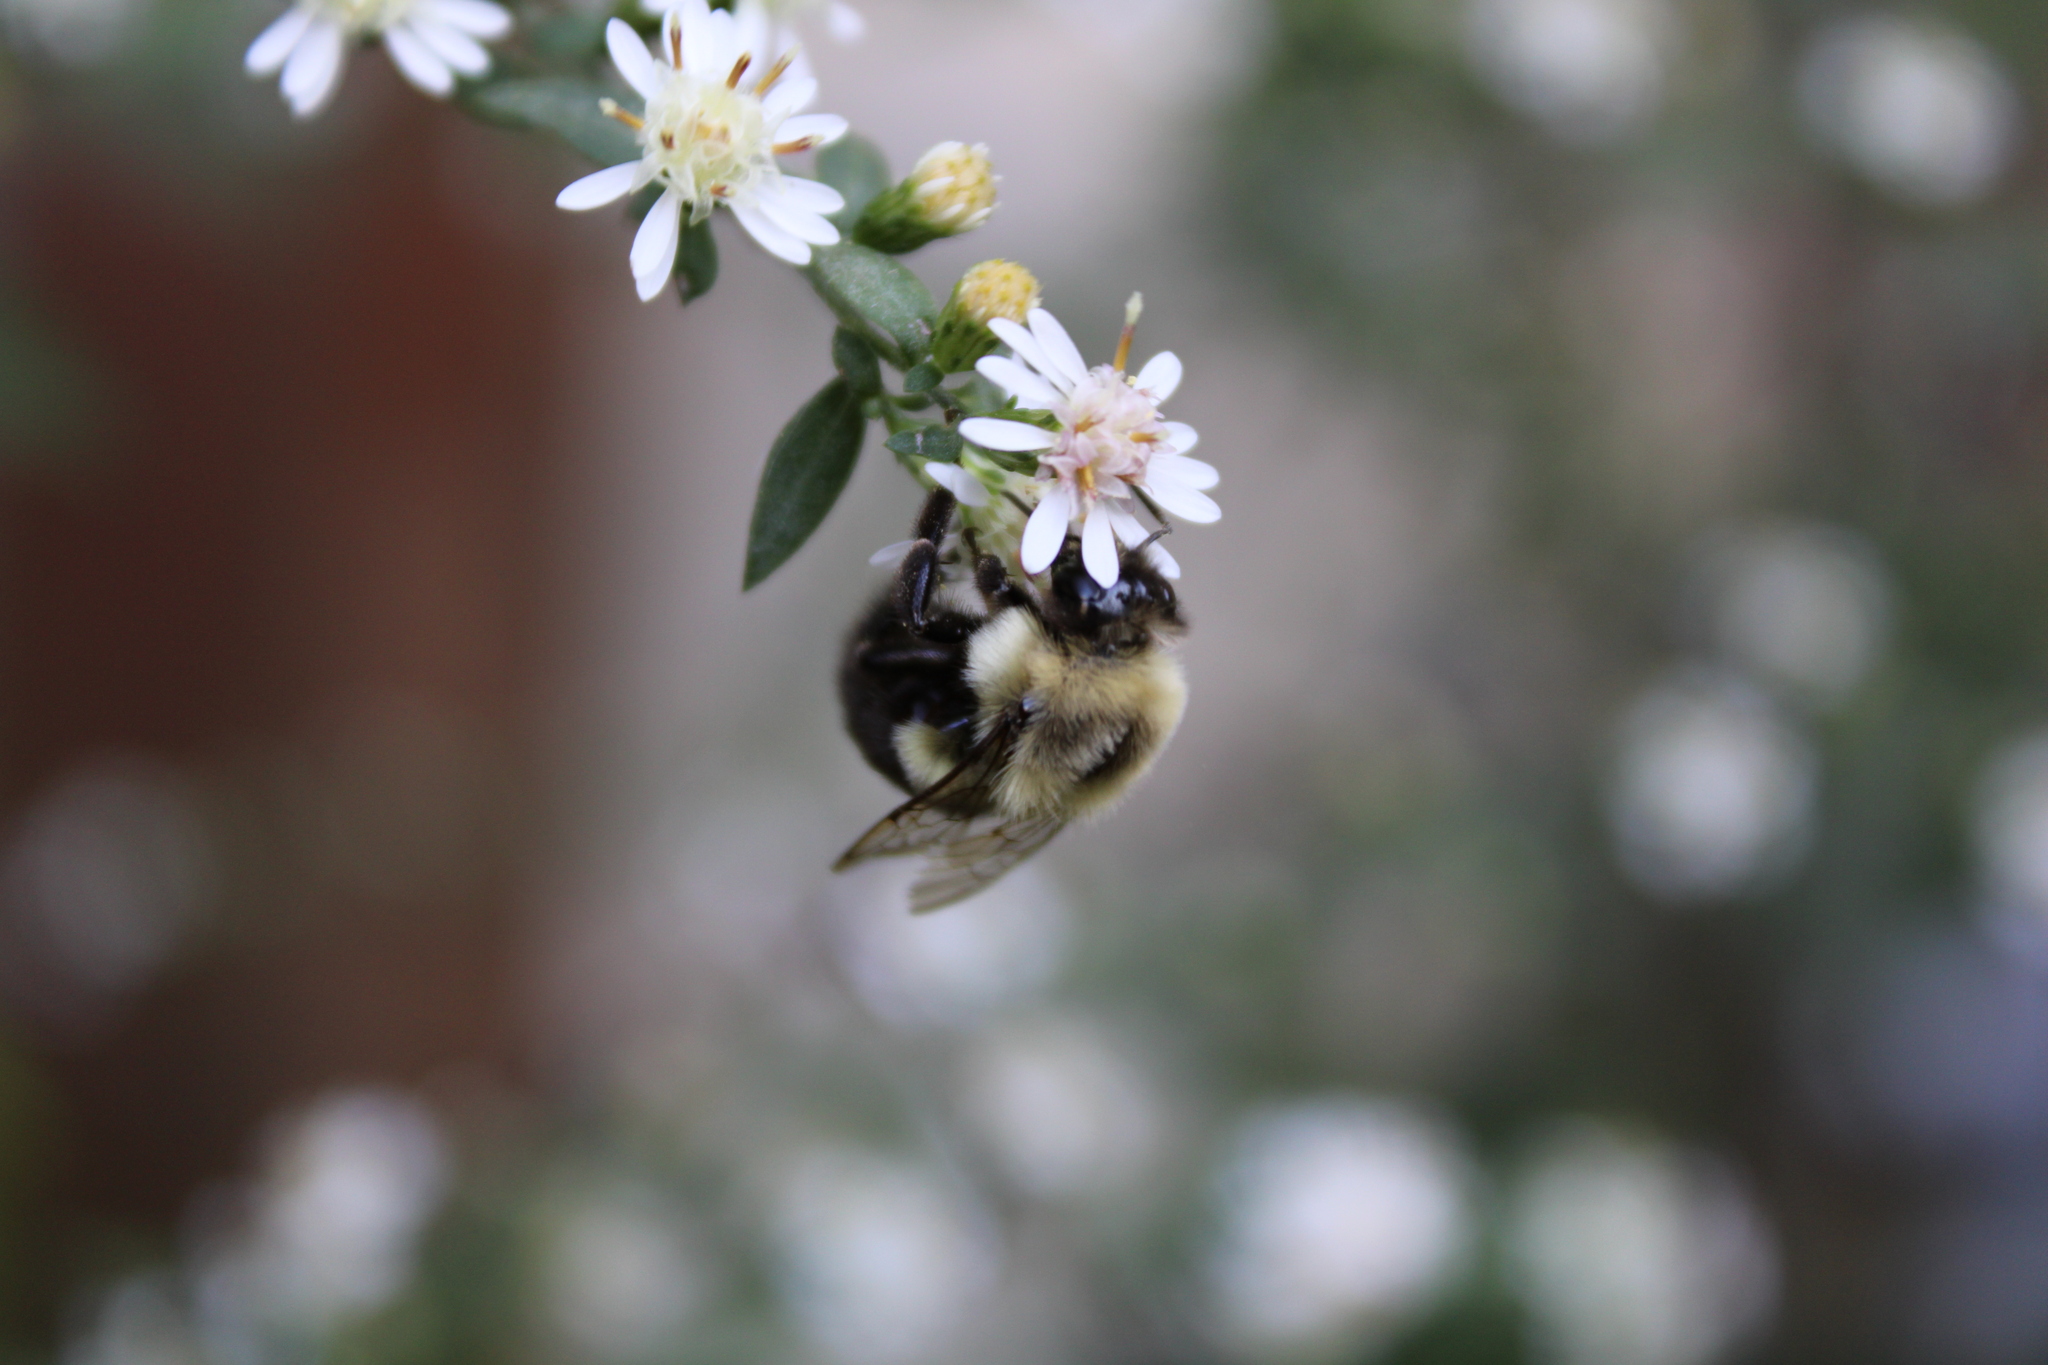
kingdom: Animalia
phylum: Arthropoda
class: Insecta
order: Hymenoptera
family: Apidae
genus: Bombus
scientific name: Bombus impatiens
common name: Common eastern bumble bee
